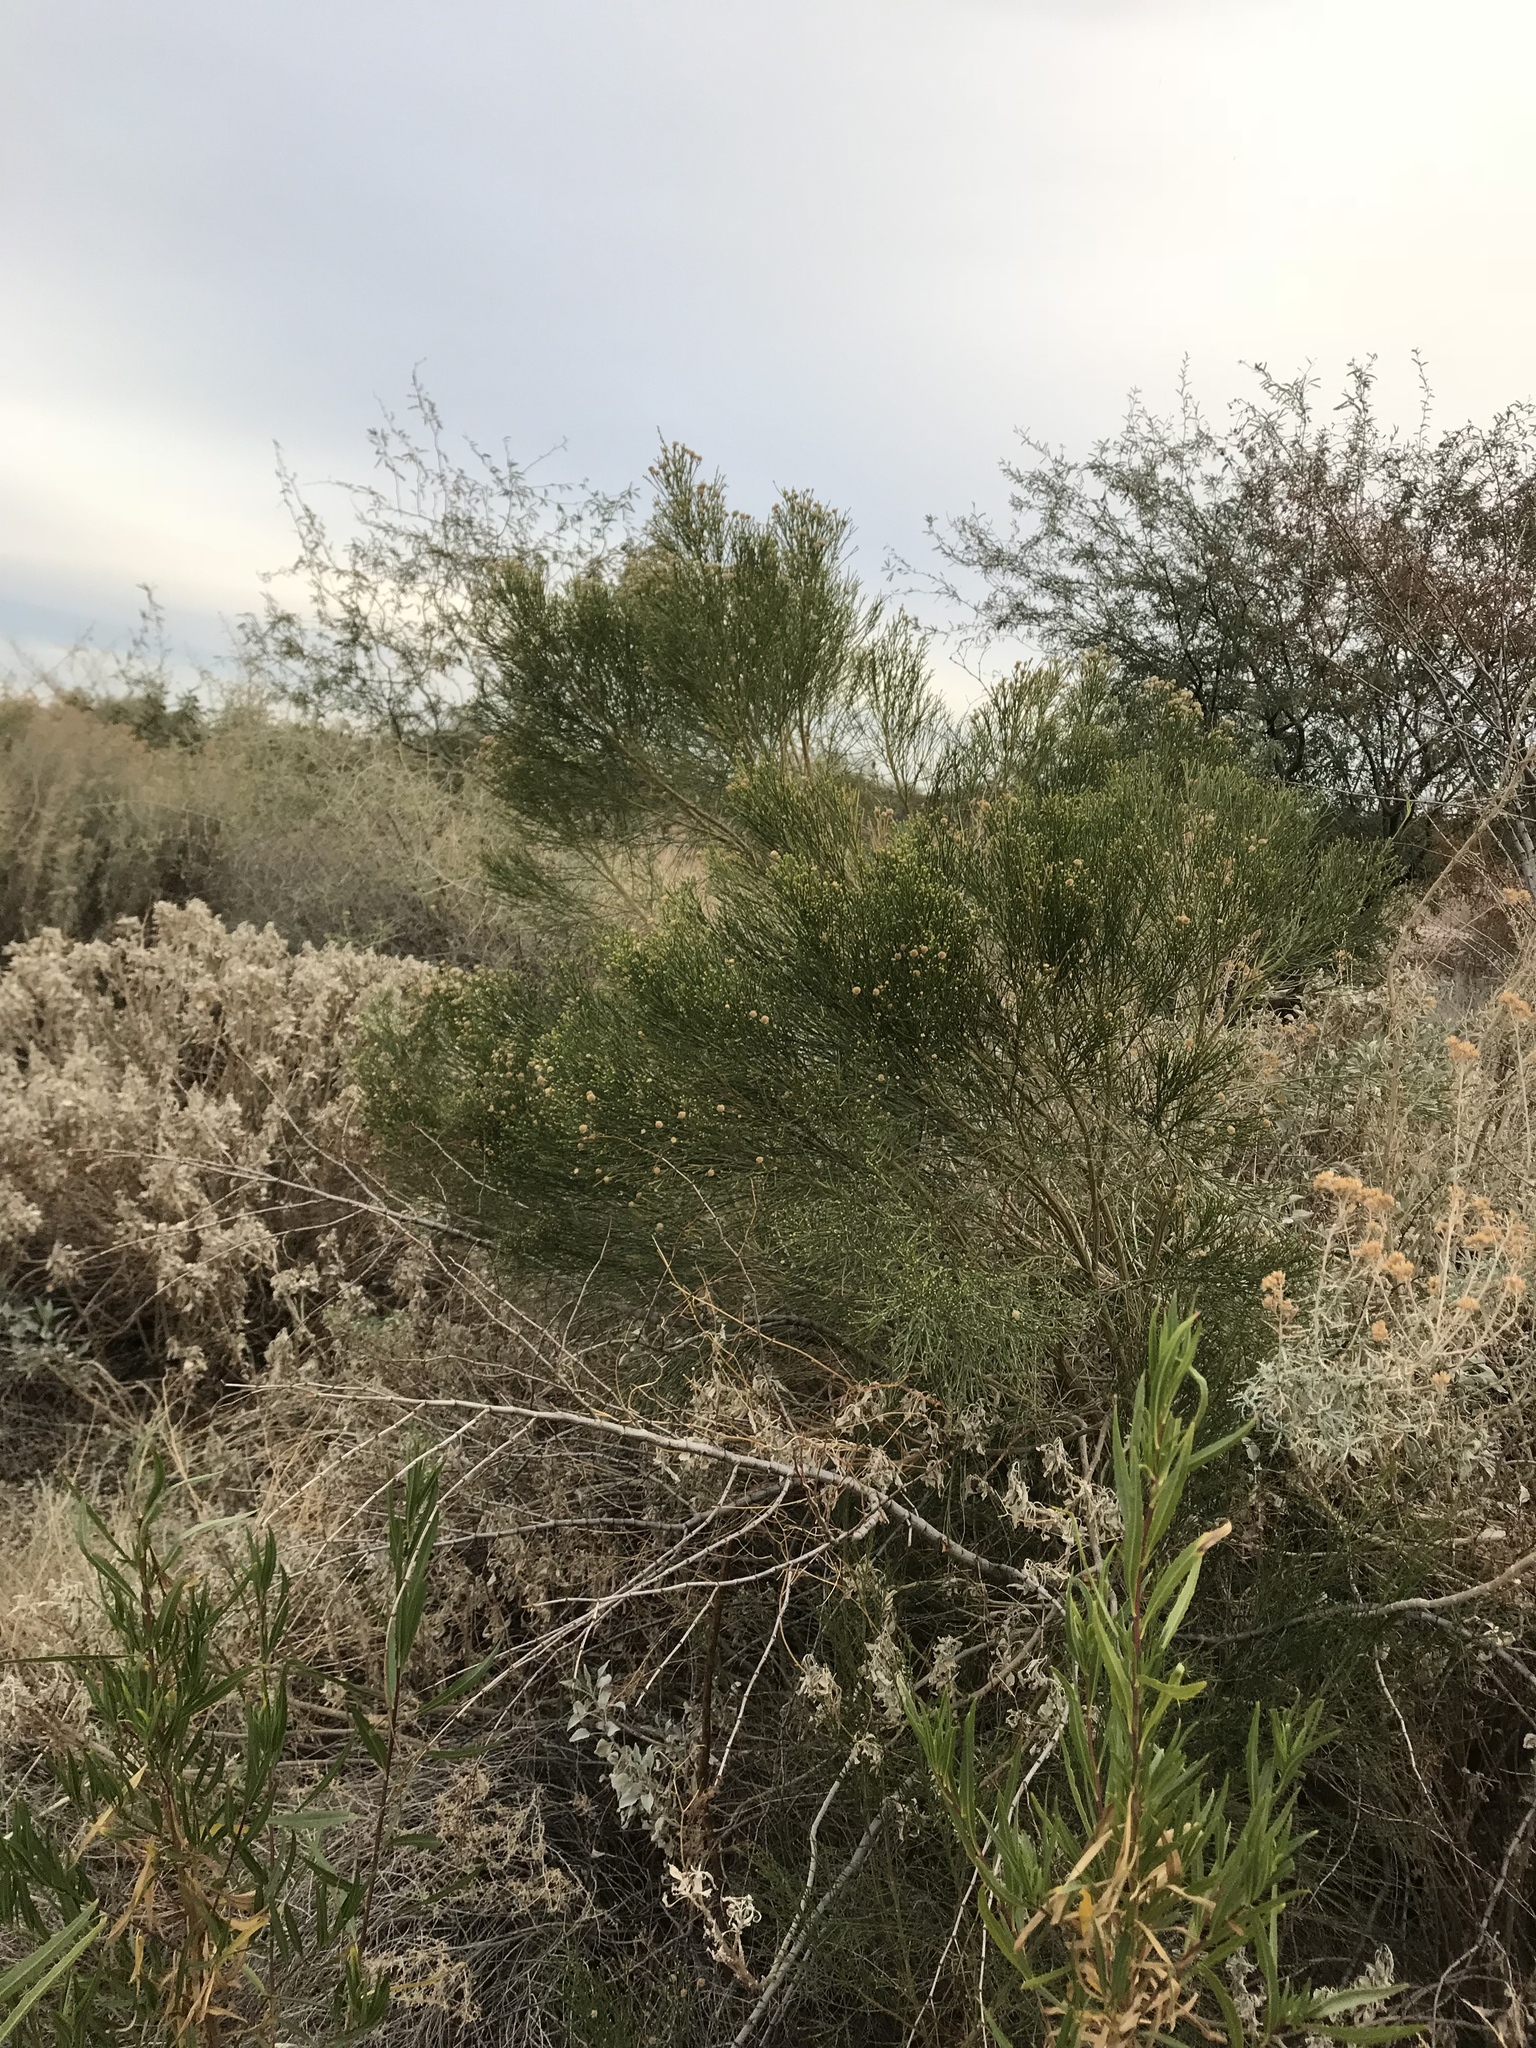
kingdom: Plantae
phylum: Tracheophyta
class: Magnoliopsida
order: Asterales
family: Asteraceae
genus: Baccharis
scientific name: Baccharis sarothroides
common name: Desert-broom
